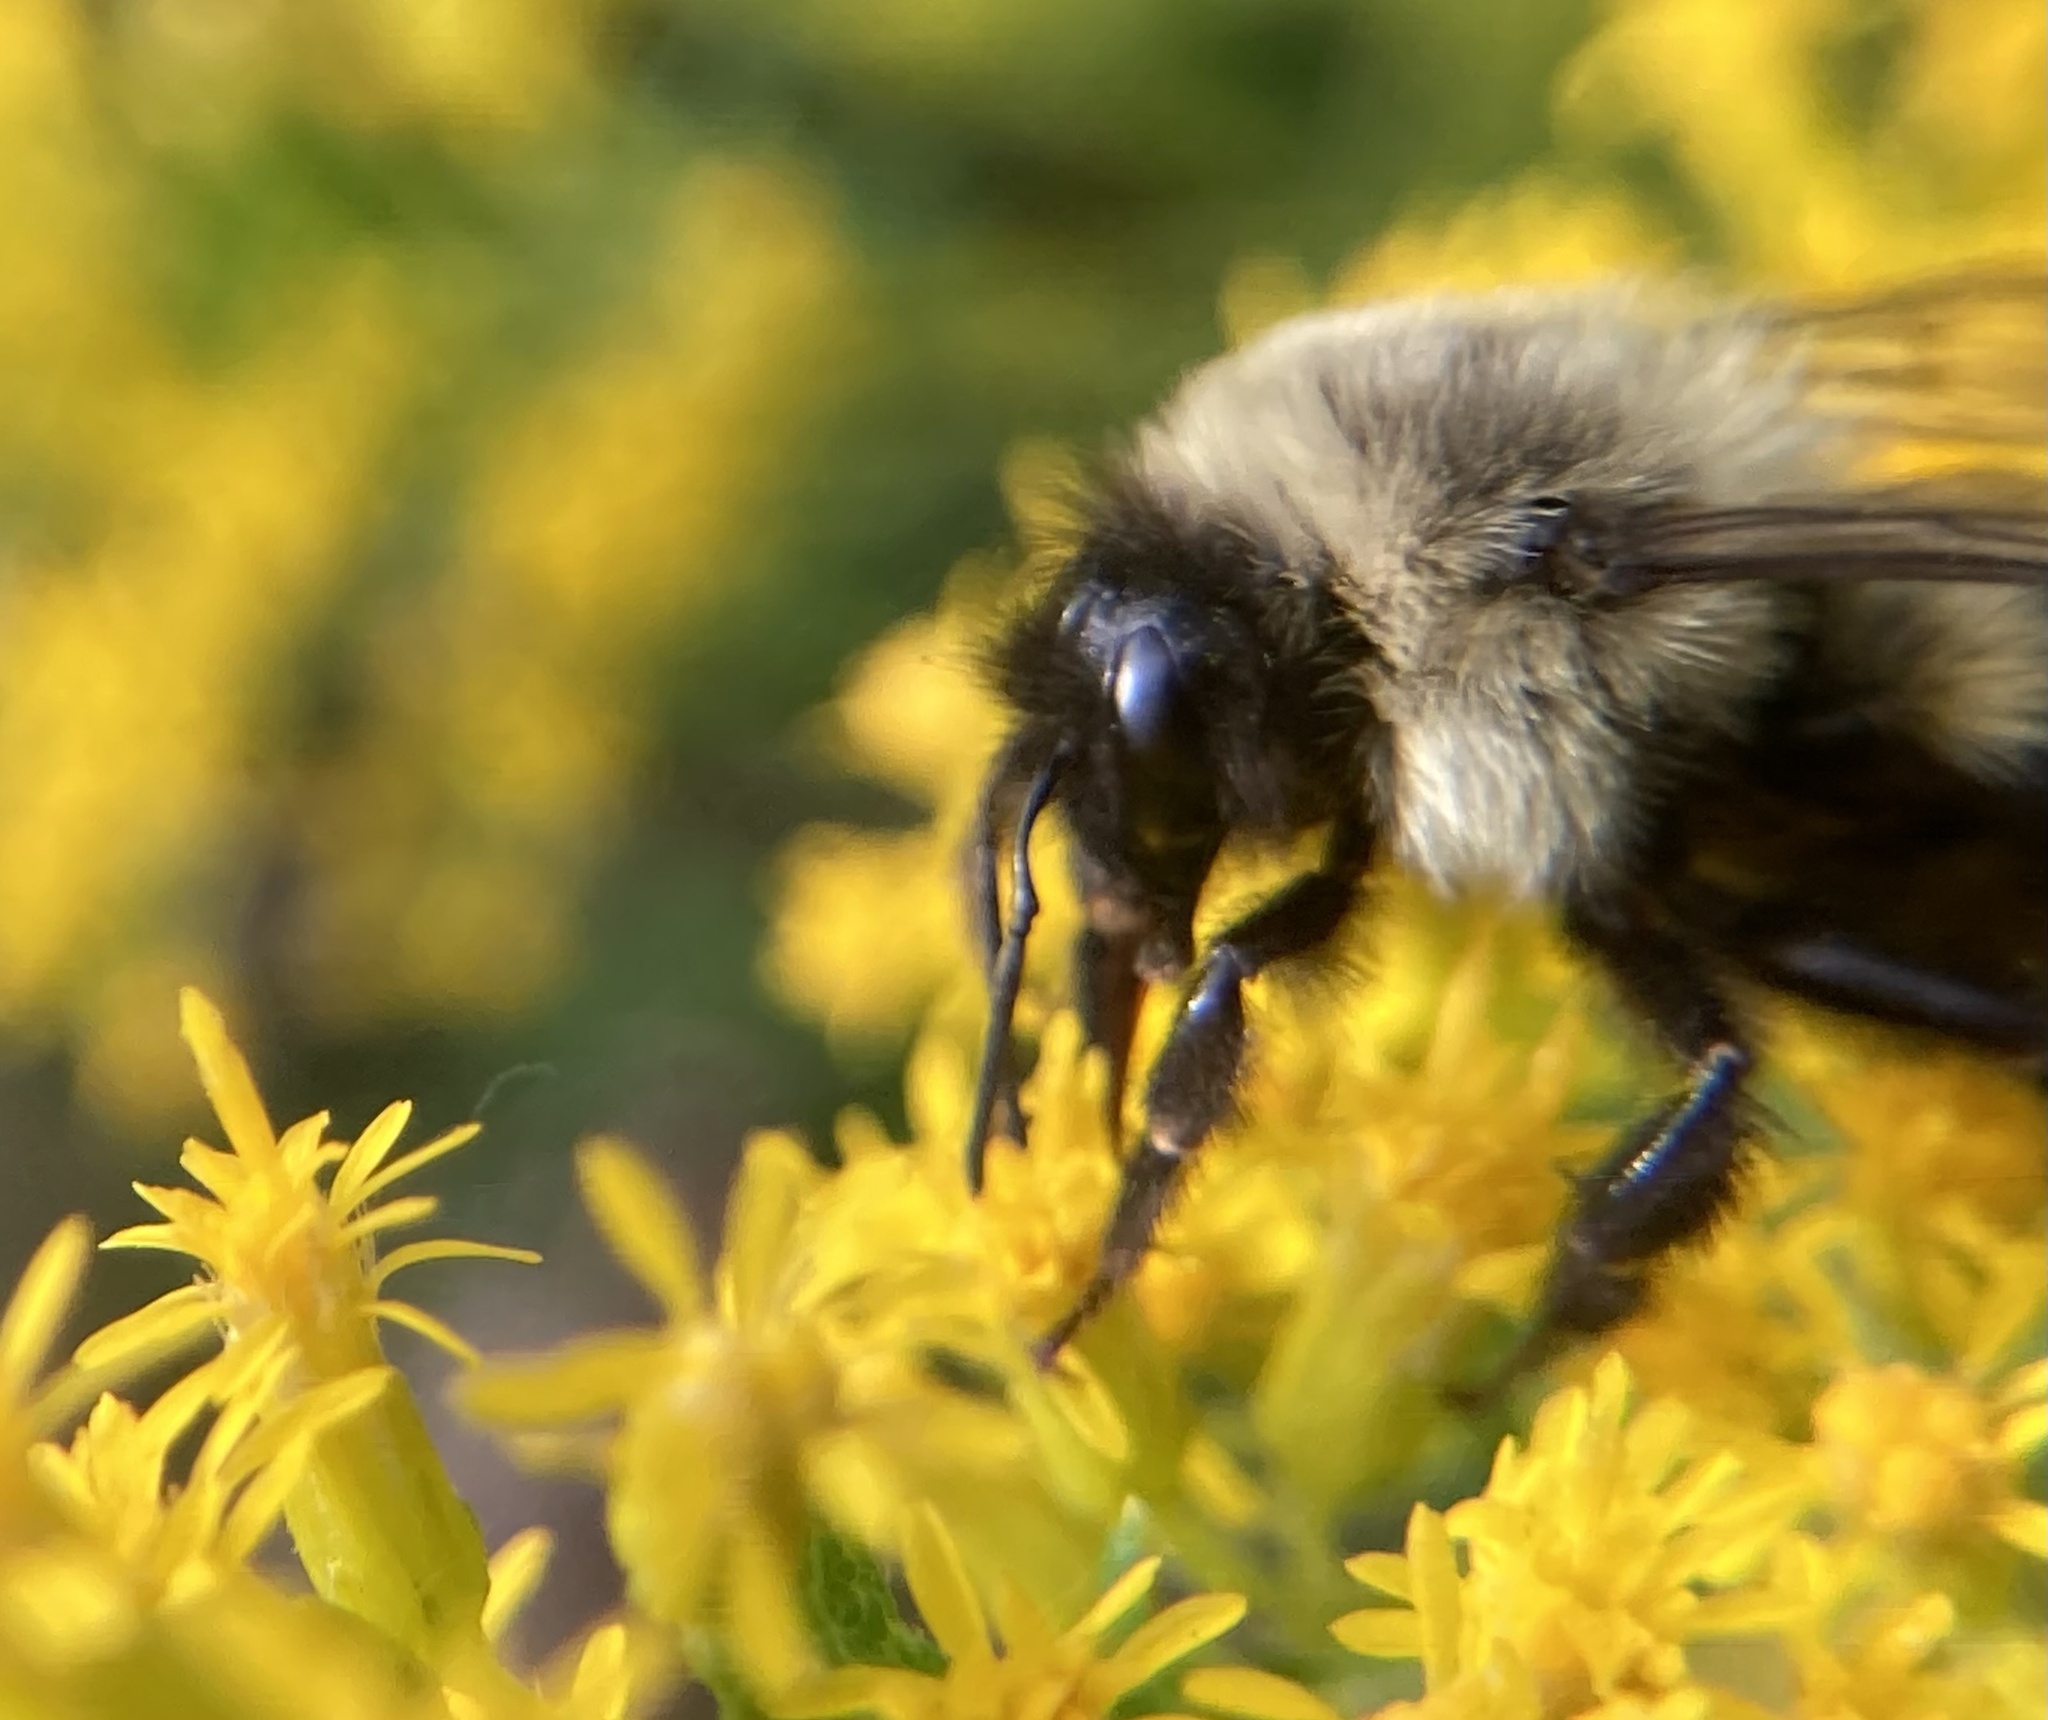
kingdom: Animalia
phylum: Arthropoda
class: Insecta
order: Hymenoptera
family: Apidae
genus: Bombus
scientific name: Bombus impatiens
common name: Common eastern bumble bee
